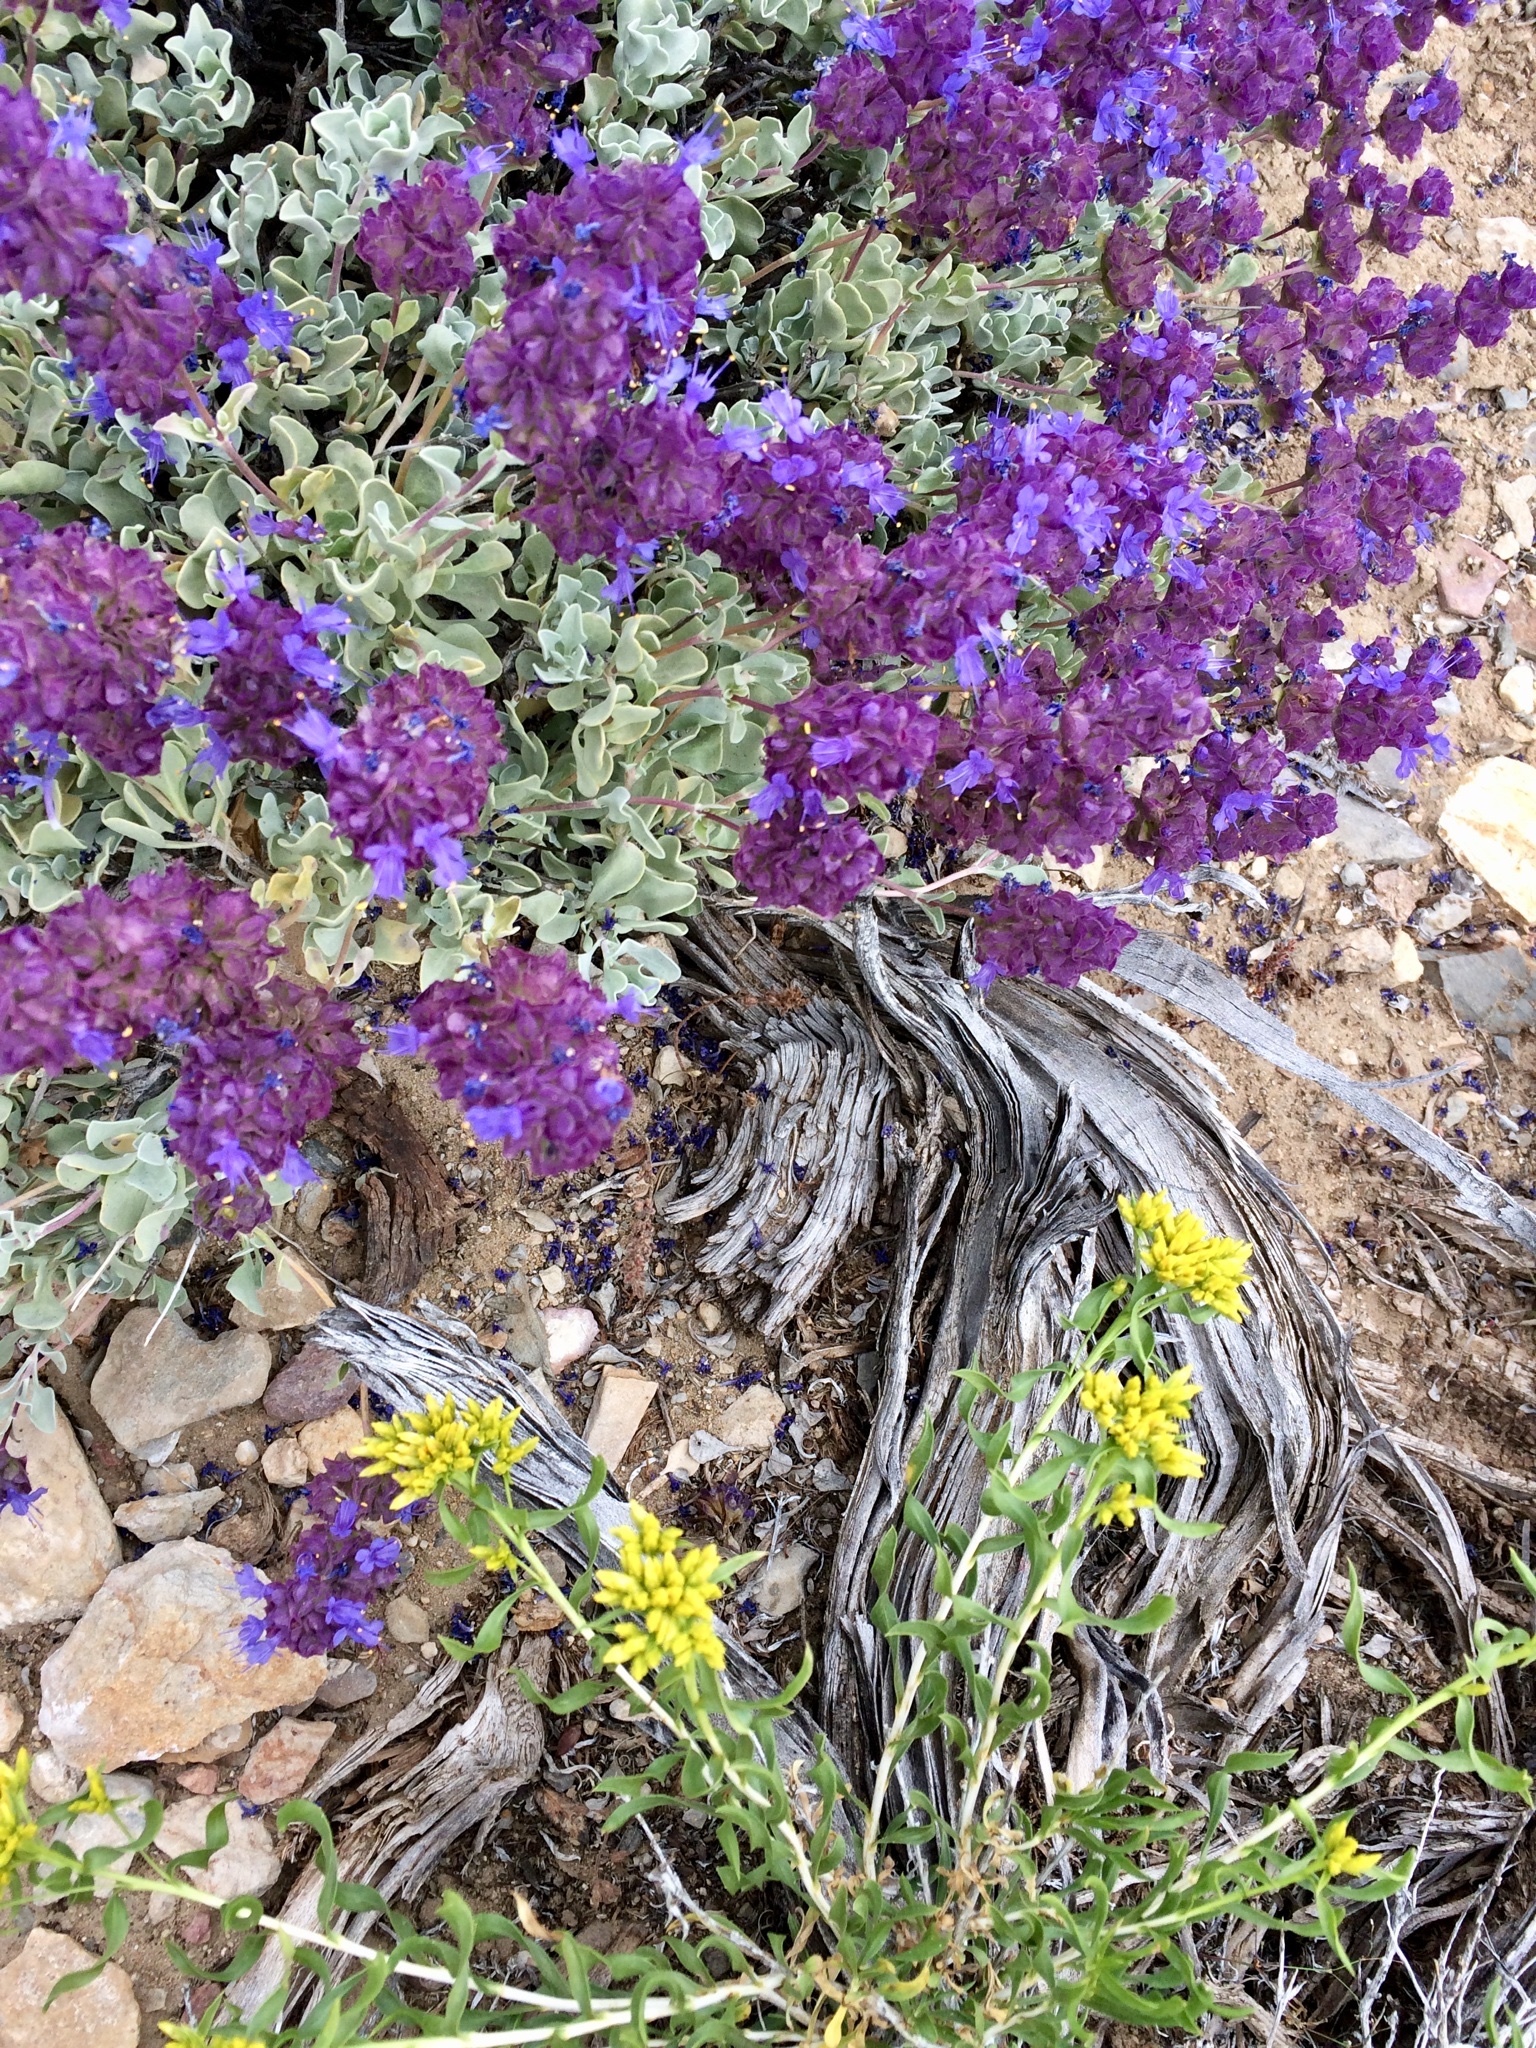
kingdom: Plantae
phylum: Tracheophyta
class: Magnoliopsida
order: Lamiales
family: Lamiaceae
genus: Salvia
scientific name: Salvia dorrii
